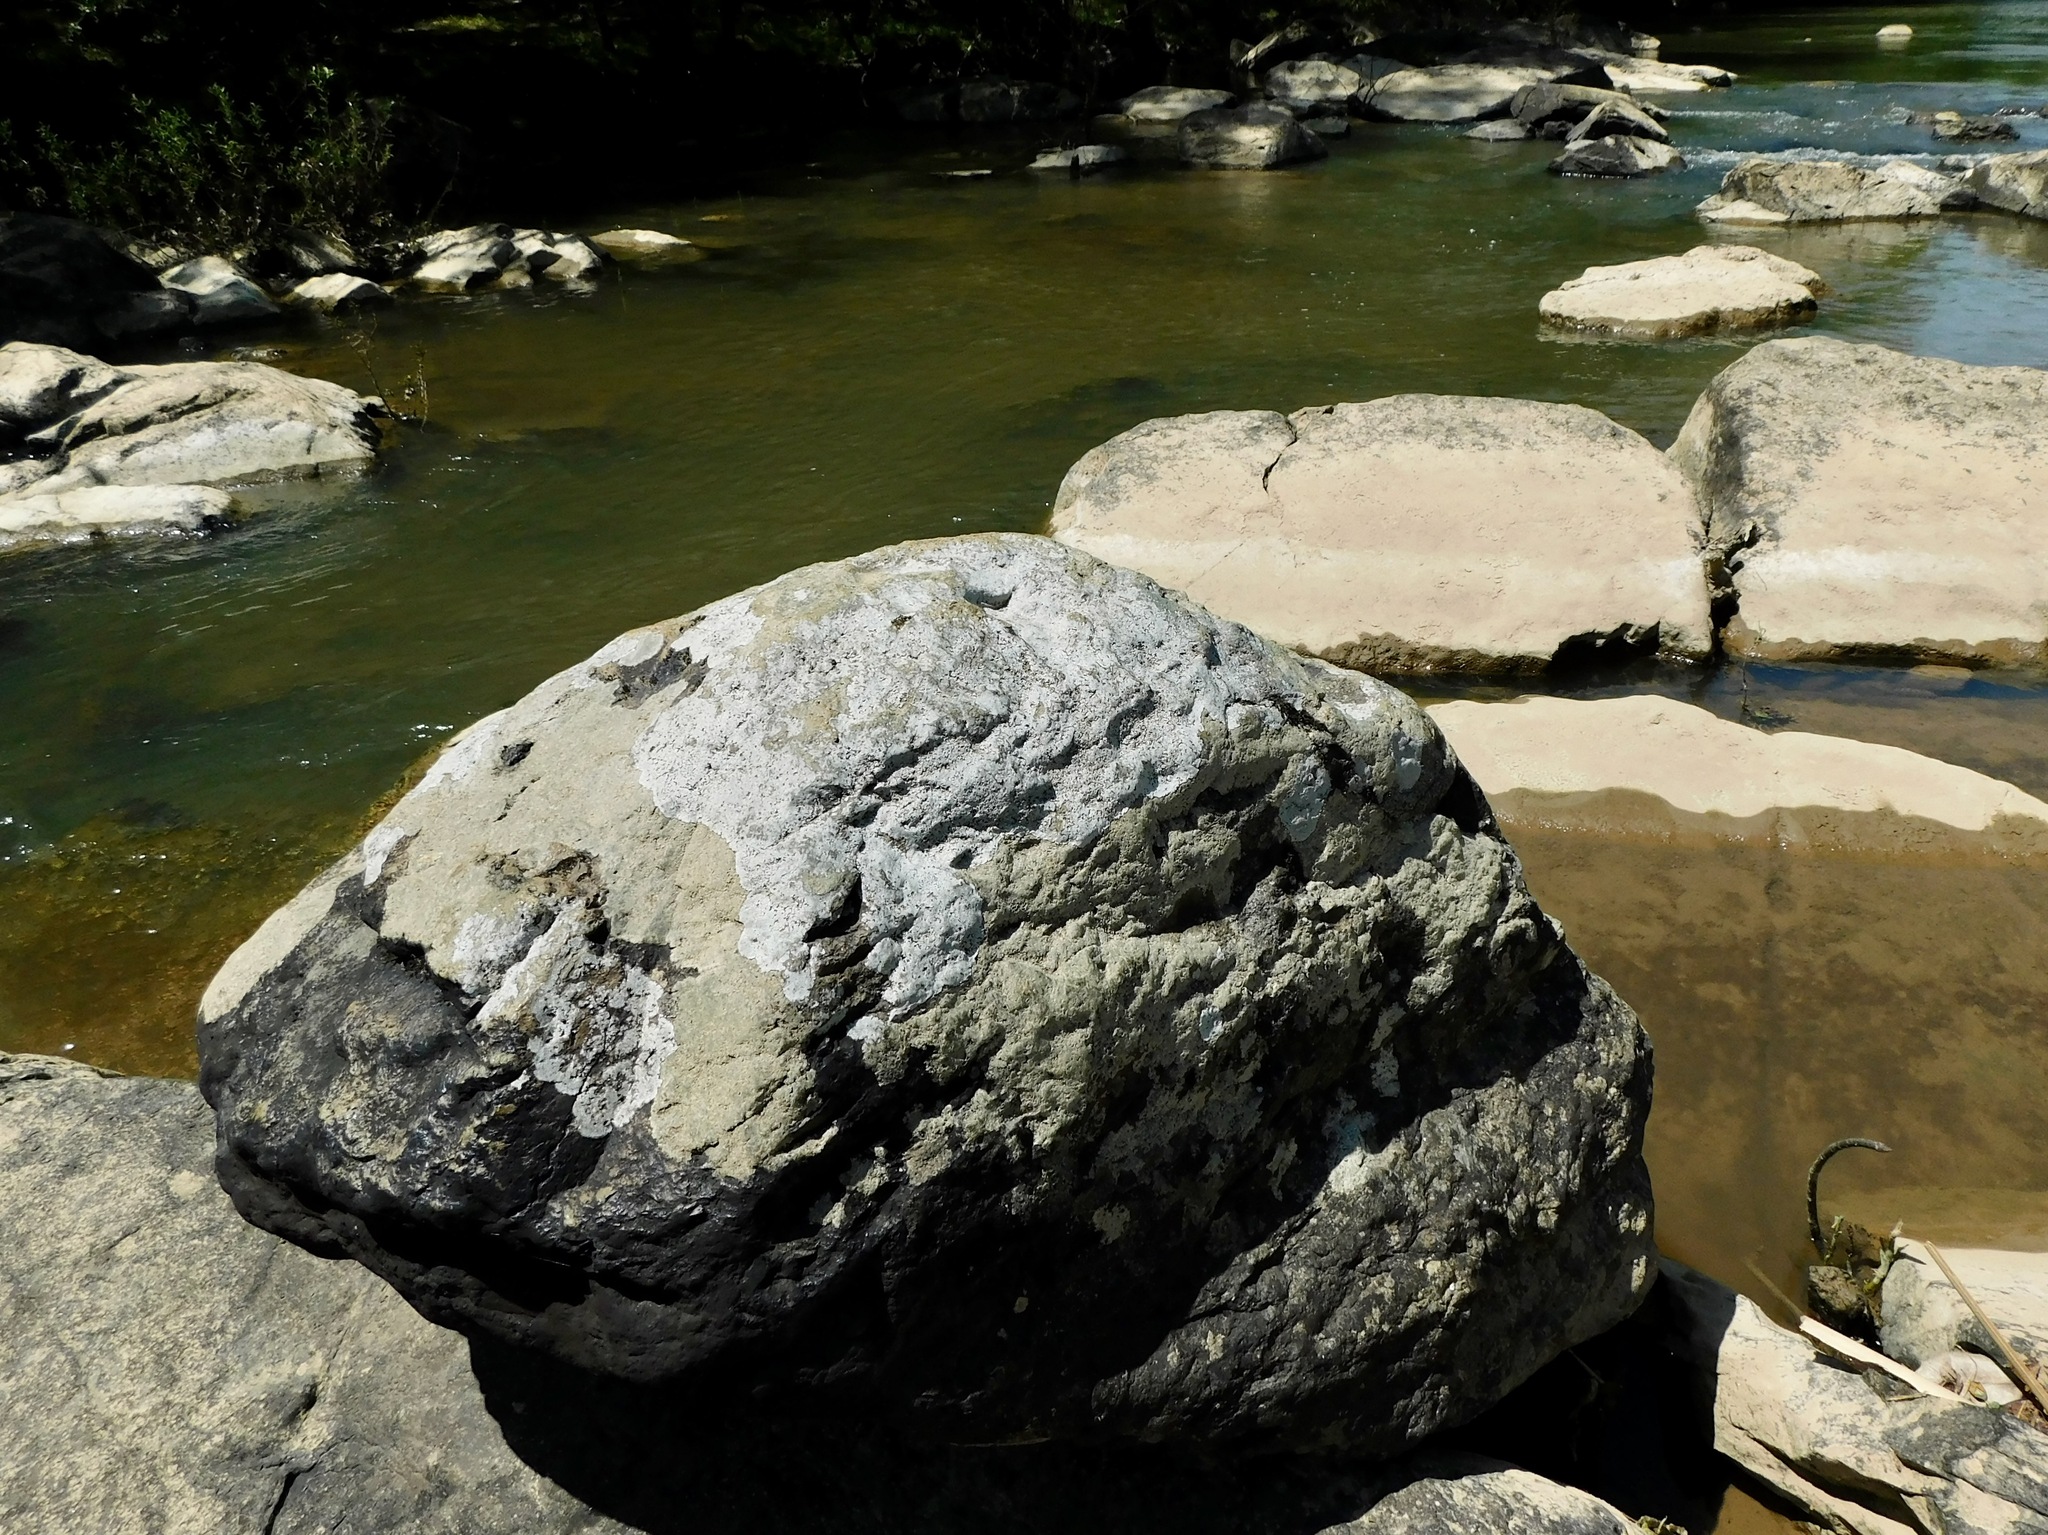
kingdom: Fungi
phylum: Ascomycota
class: Lecanoromycetes
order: Rhizocarpales
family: Rhizocarpaceae
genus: Rhizocarpon
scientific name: Rhizocarpon rubescens
